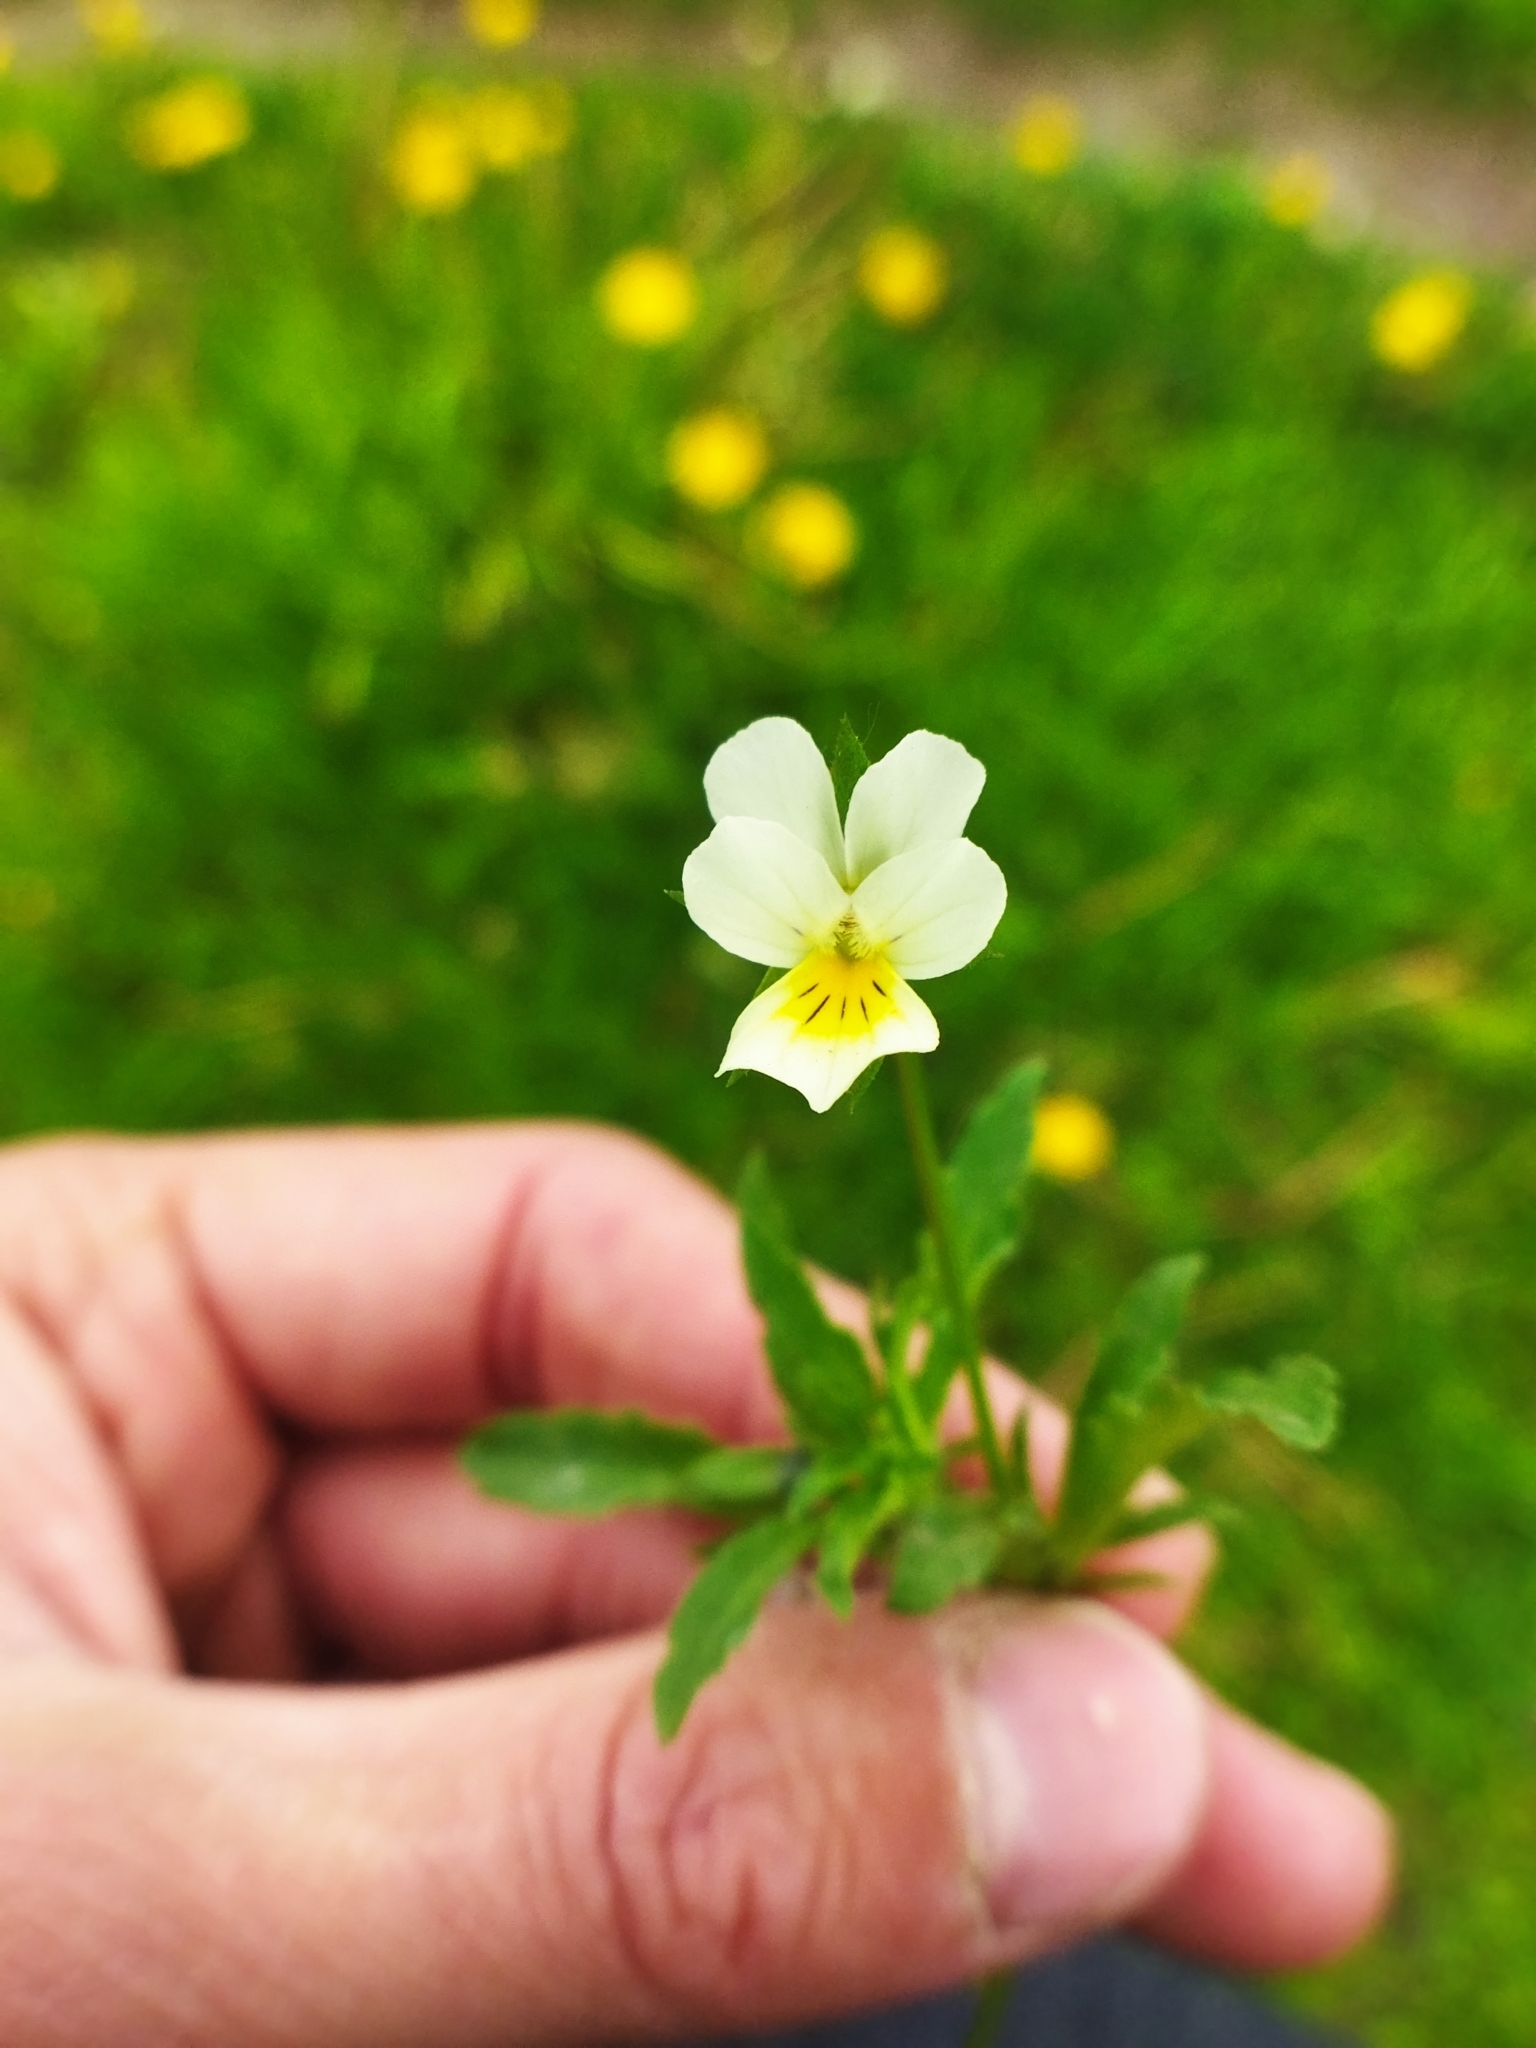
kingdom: Plantae
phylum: Tracheophyta
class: Magnoliopsida
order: Malpighiales
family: Violaceae
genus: Viola
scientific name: Viola arvensis
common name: Field pansy
